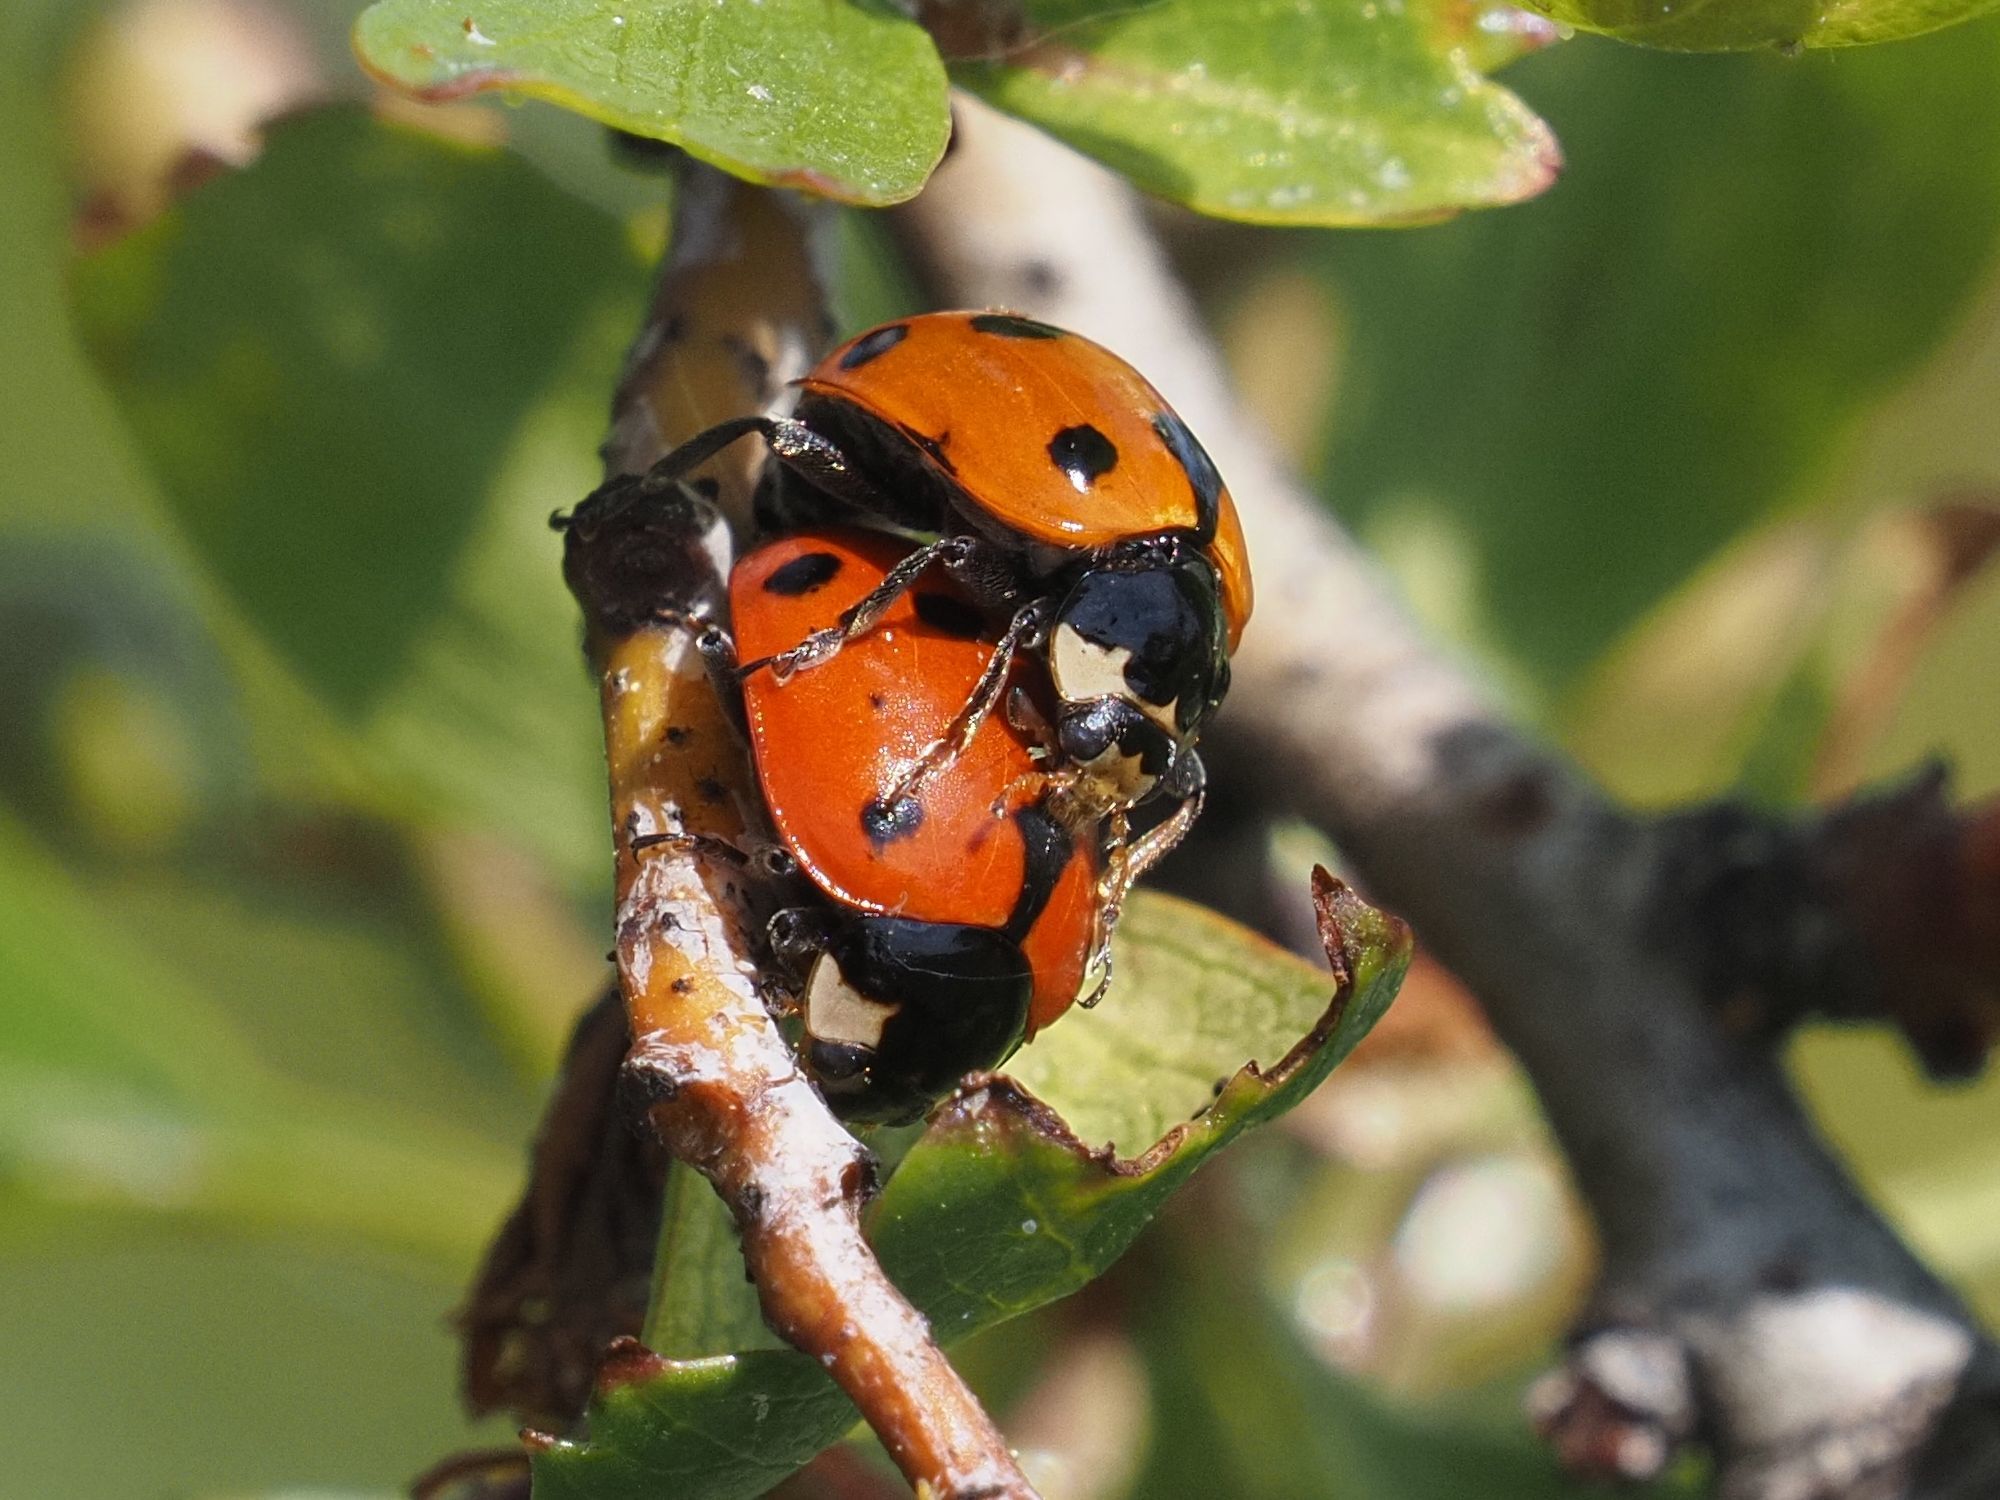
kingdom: Animalia
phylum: Arthropoda
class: Insecta
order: Coleoptera
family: Coccinellidae
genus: Ceratomegilla
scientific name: Ceratomegilla undecimnotata
